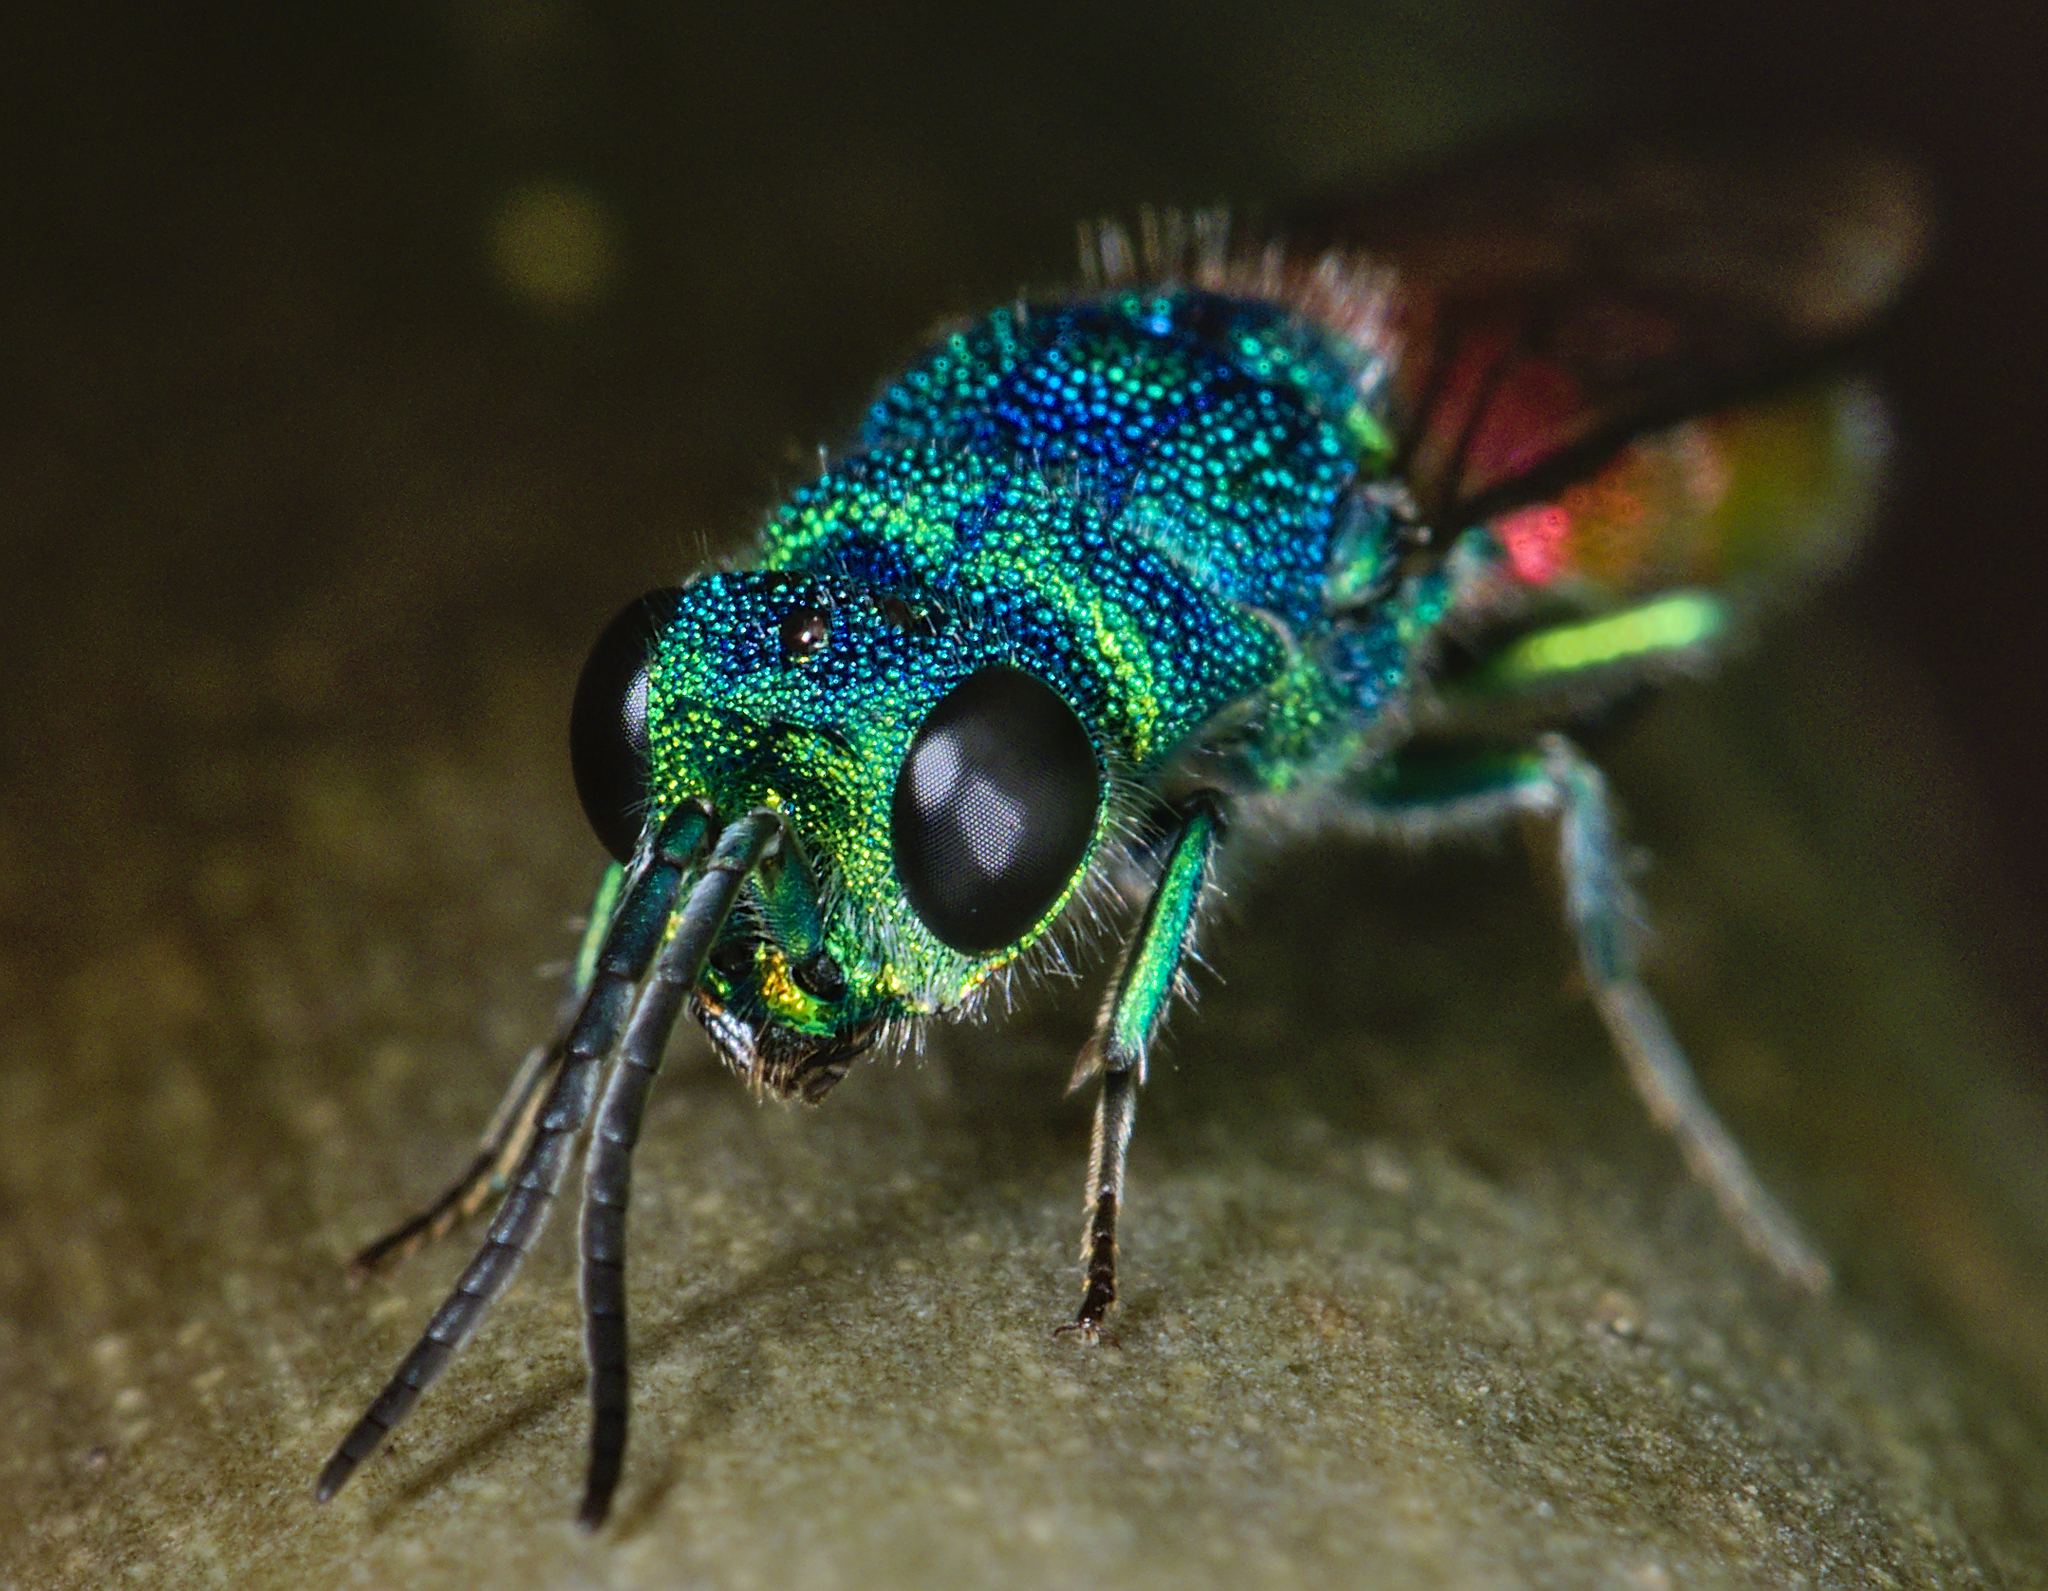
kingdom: Animalia
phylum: Arthropoda
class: Insecta
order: Hymenoptera
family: Chrysididae
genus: Chrysis
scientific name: Chrysis terminata
